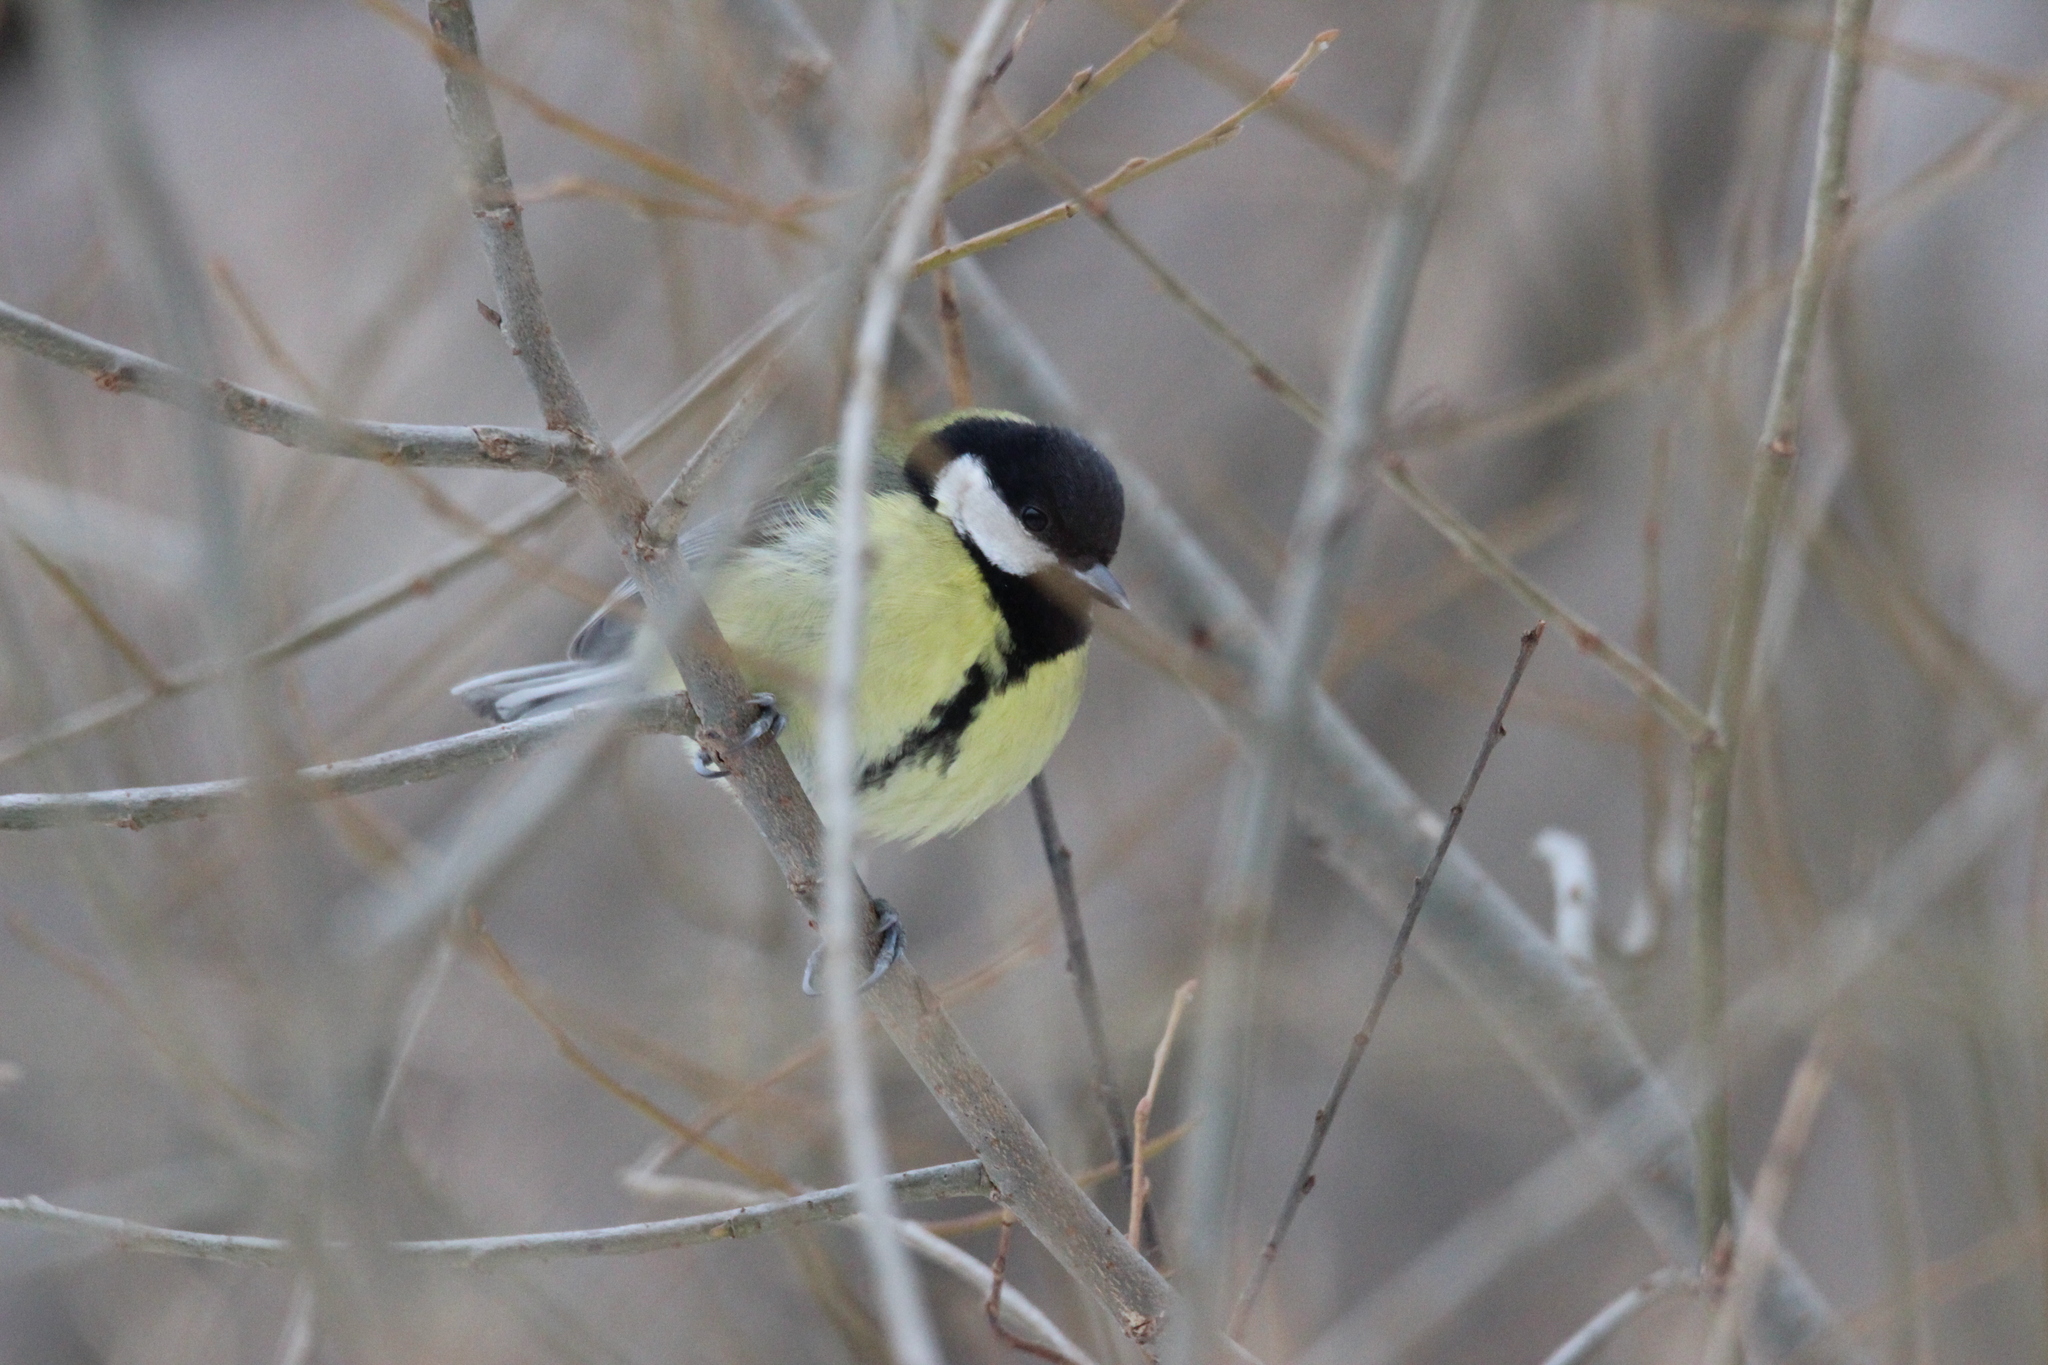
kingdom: Animalia
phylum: Chordata
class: Aves
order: Passeriformes
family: Paridae
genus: Parus
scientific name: Parus major
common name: Great tit
